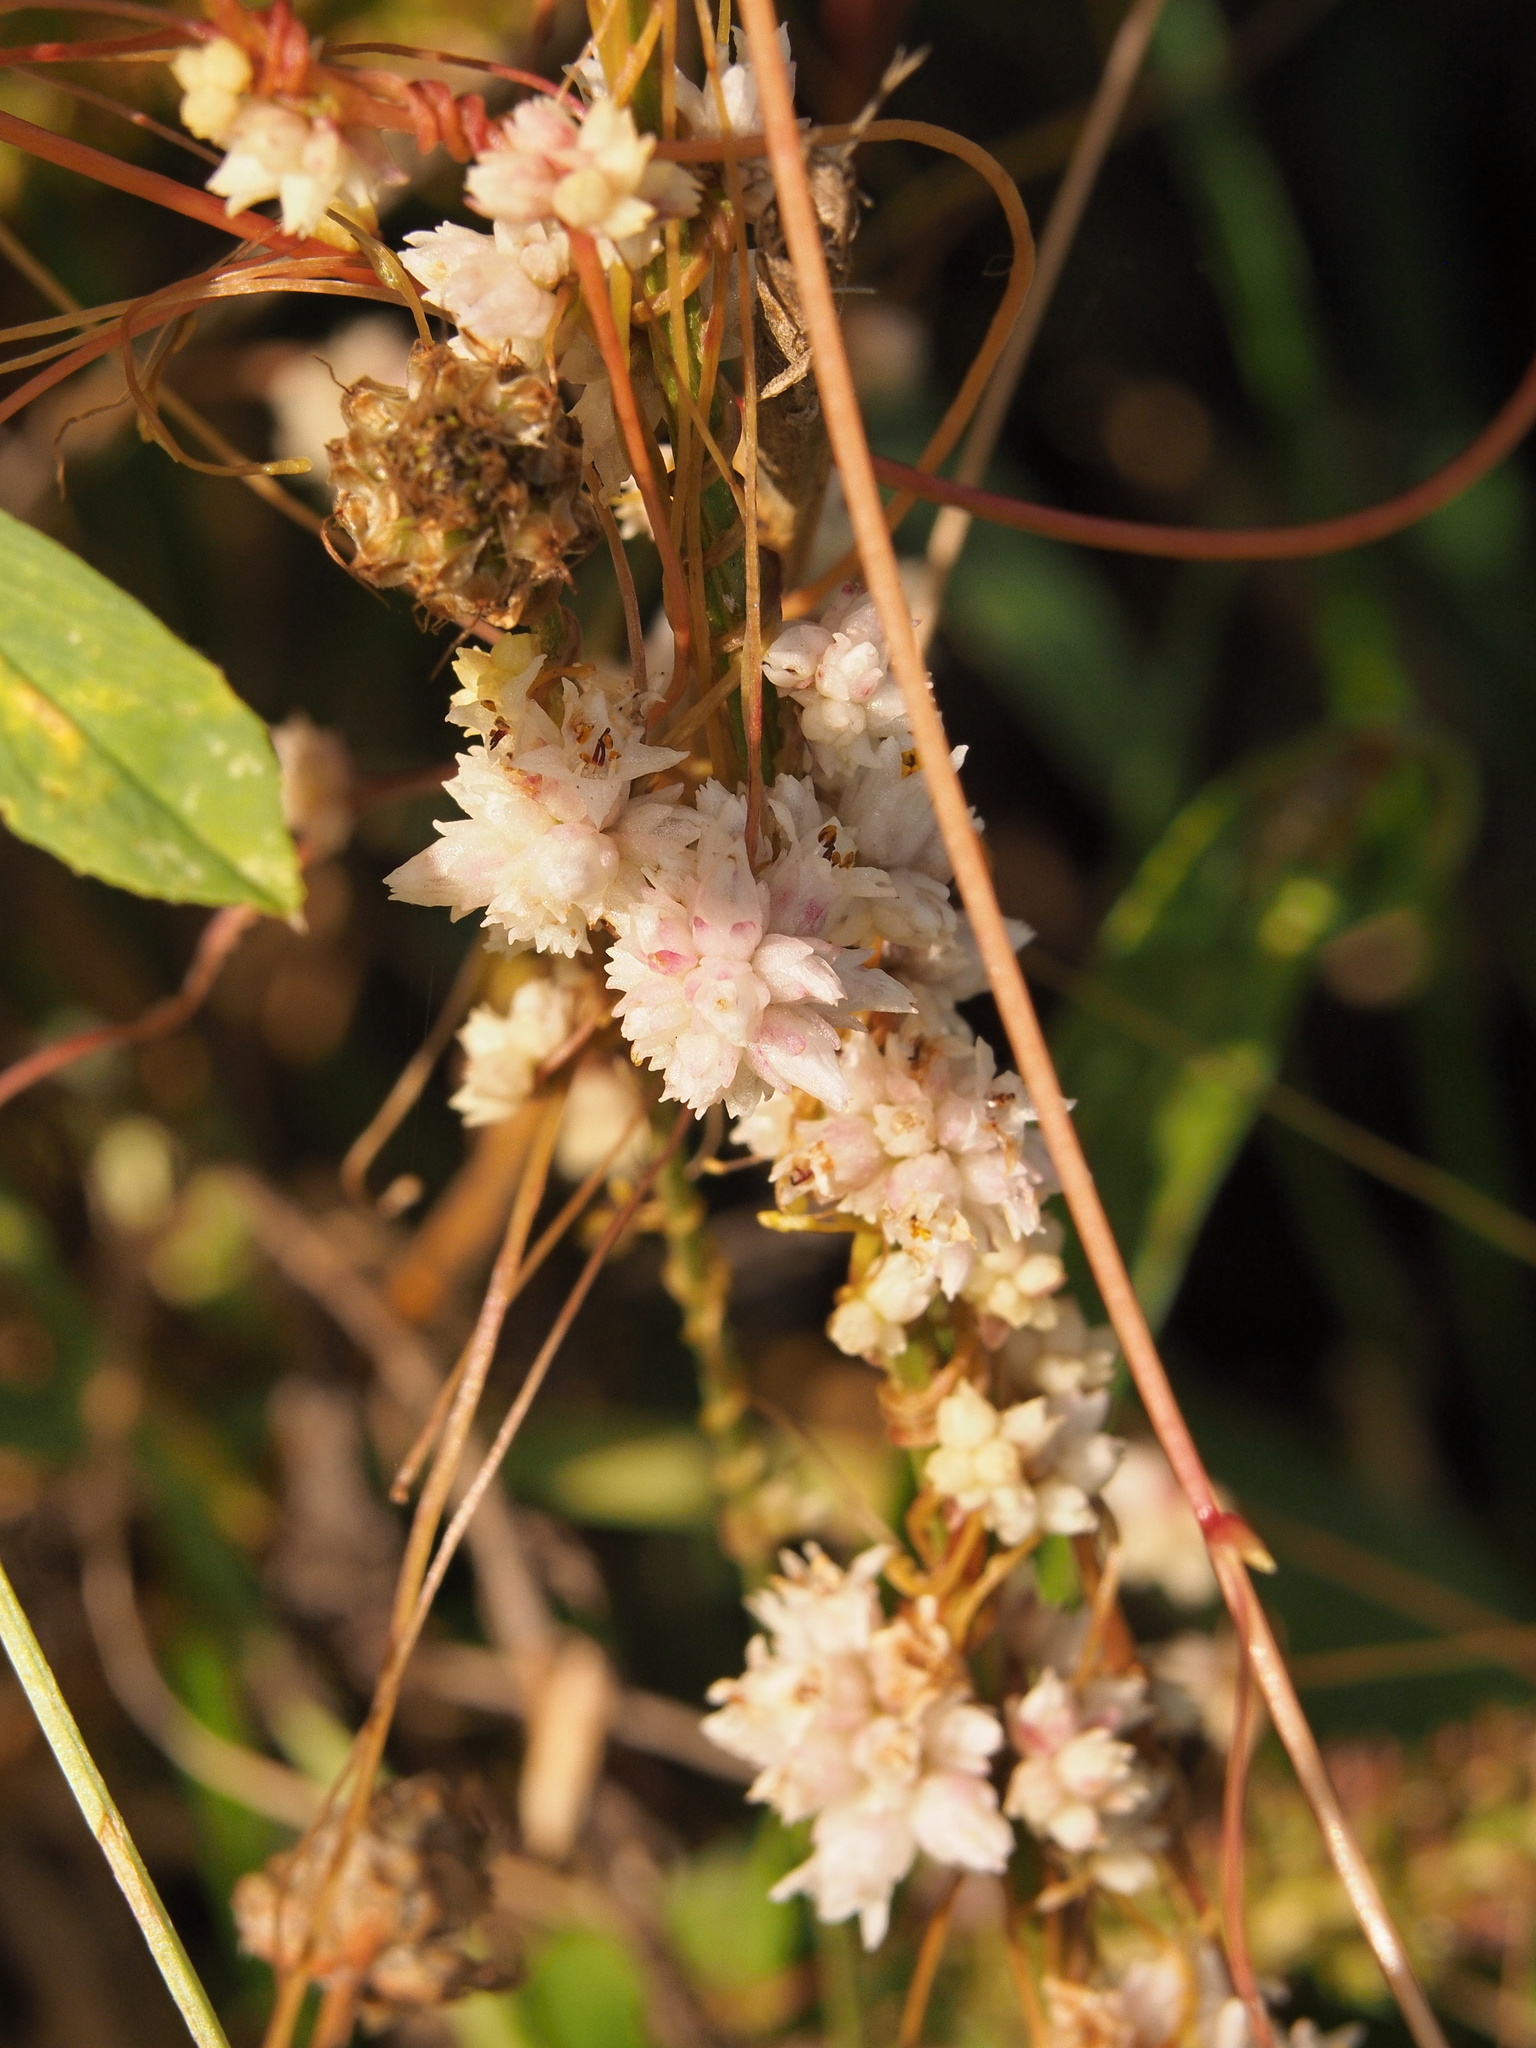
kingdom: Plantae
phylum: Tracheophyta
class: Magnoliopsida
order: Solanales
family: Convolvulaceae
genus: Cuscuta
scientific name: Cuscuta epithymum
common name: Clover dodder
